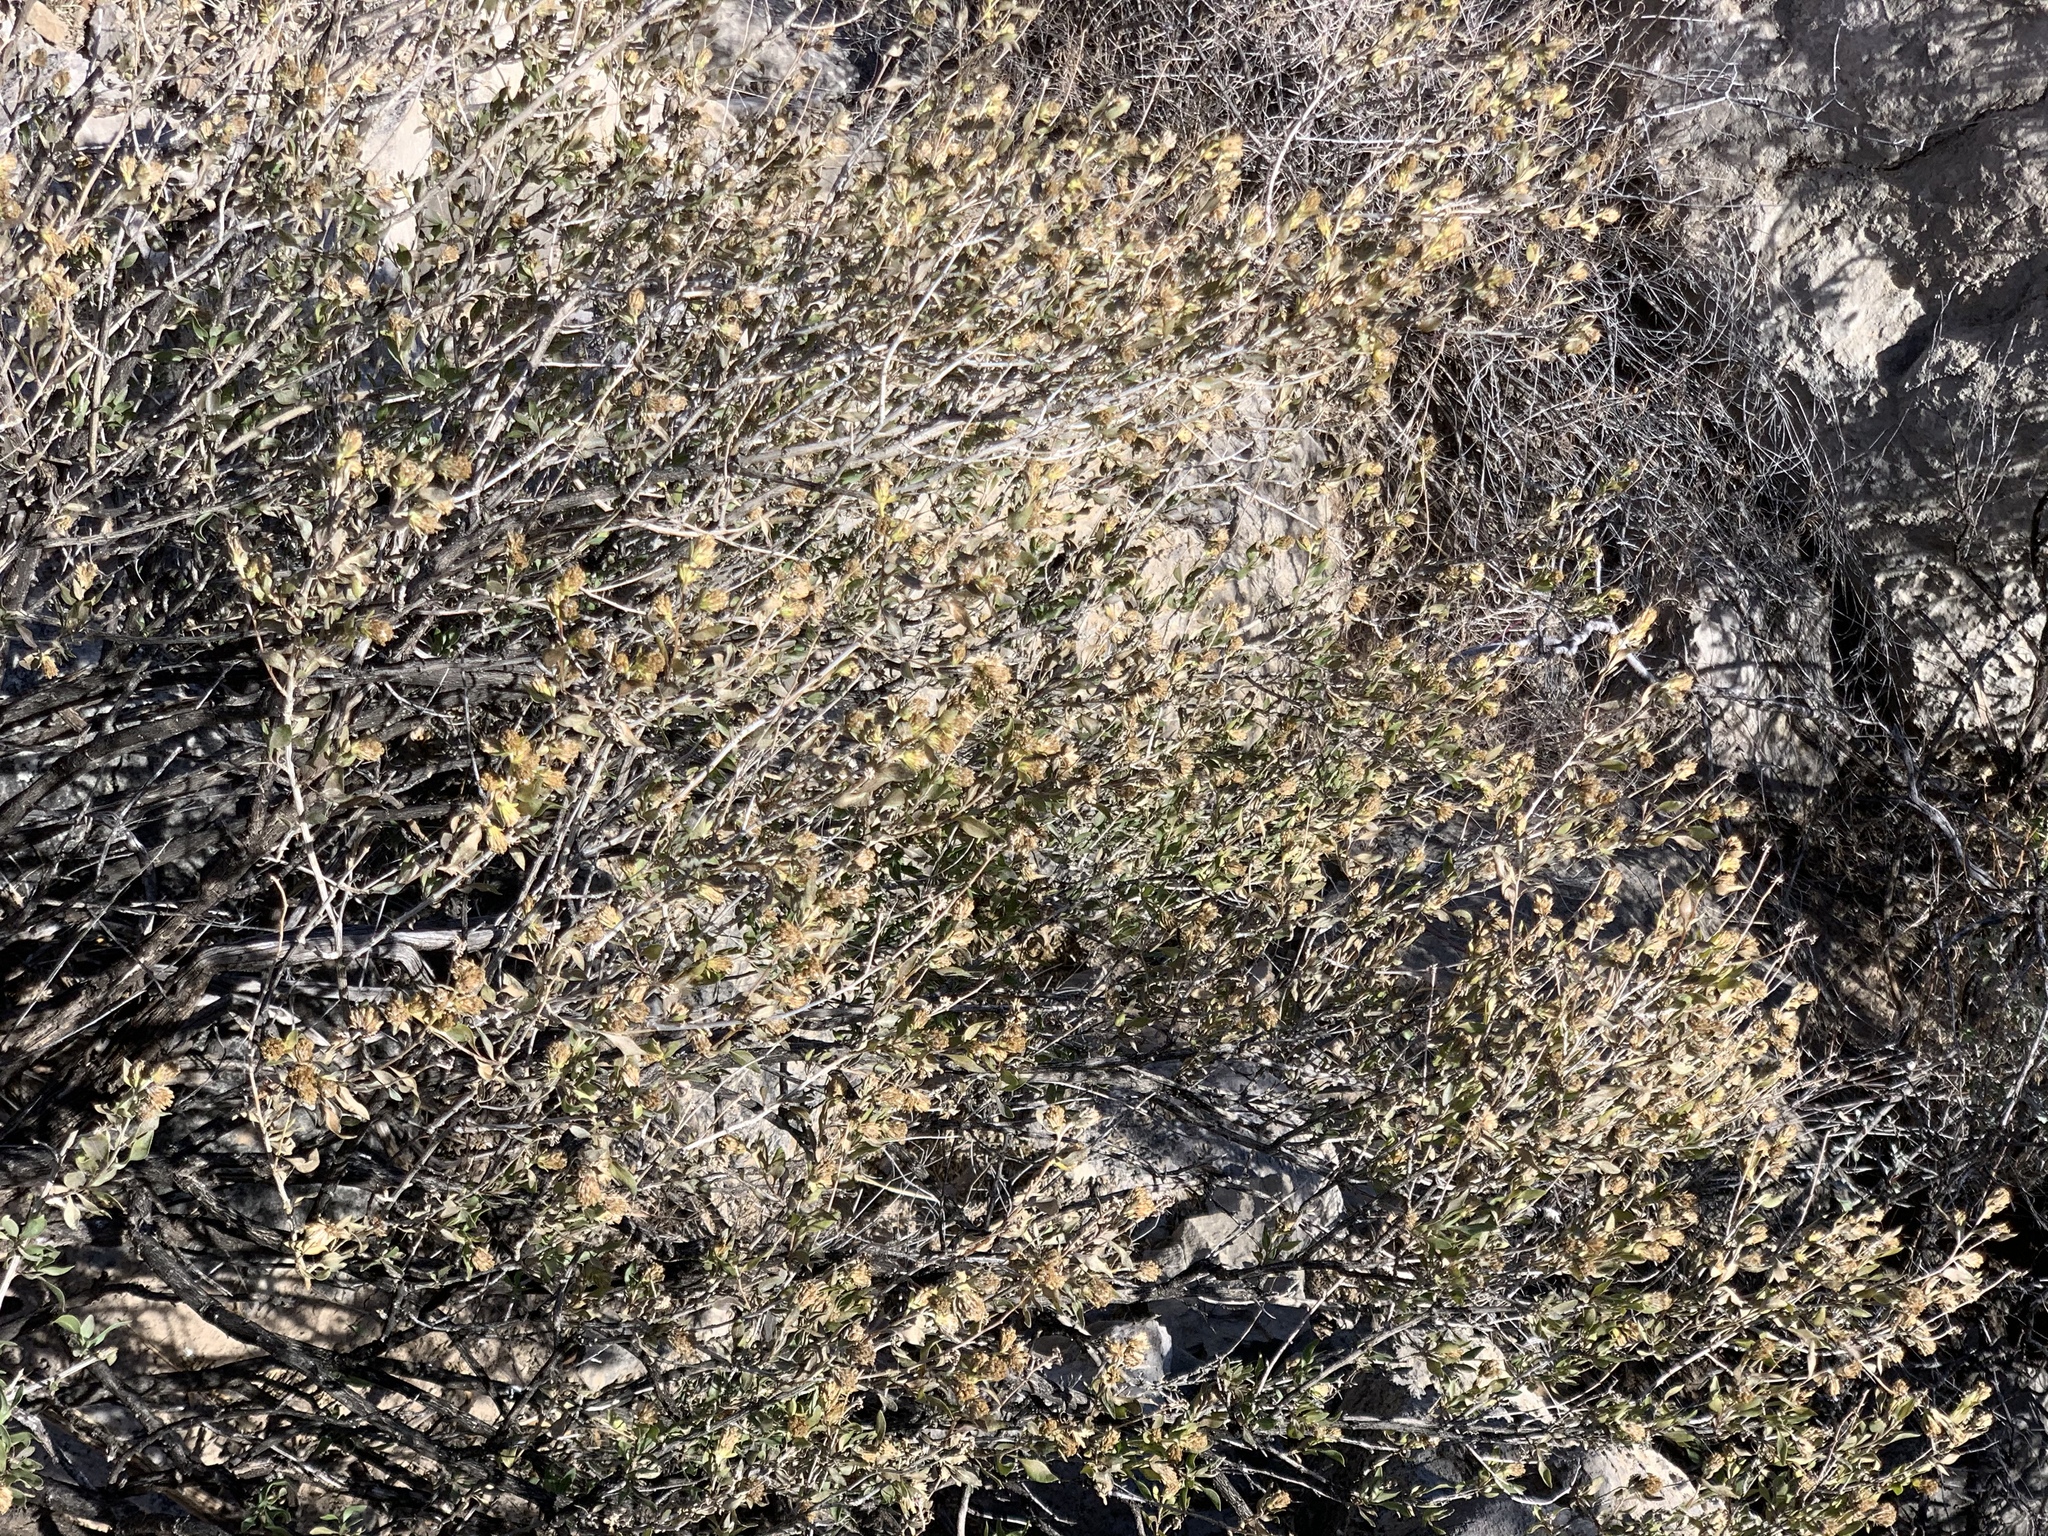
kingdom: Plantae
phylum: Tracheophyta
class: Magnoliopsida
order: Asterales
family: Asteraceae
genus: Flourensia
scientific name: Flourensia cernua
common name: Varnishbush
